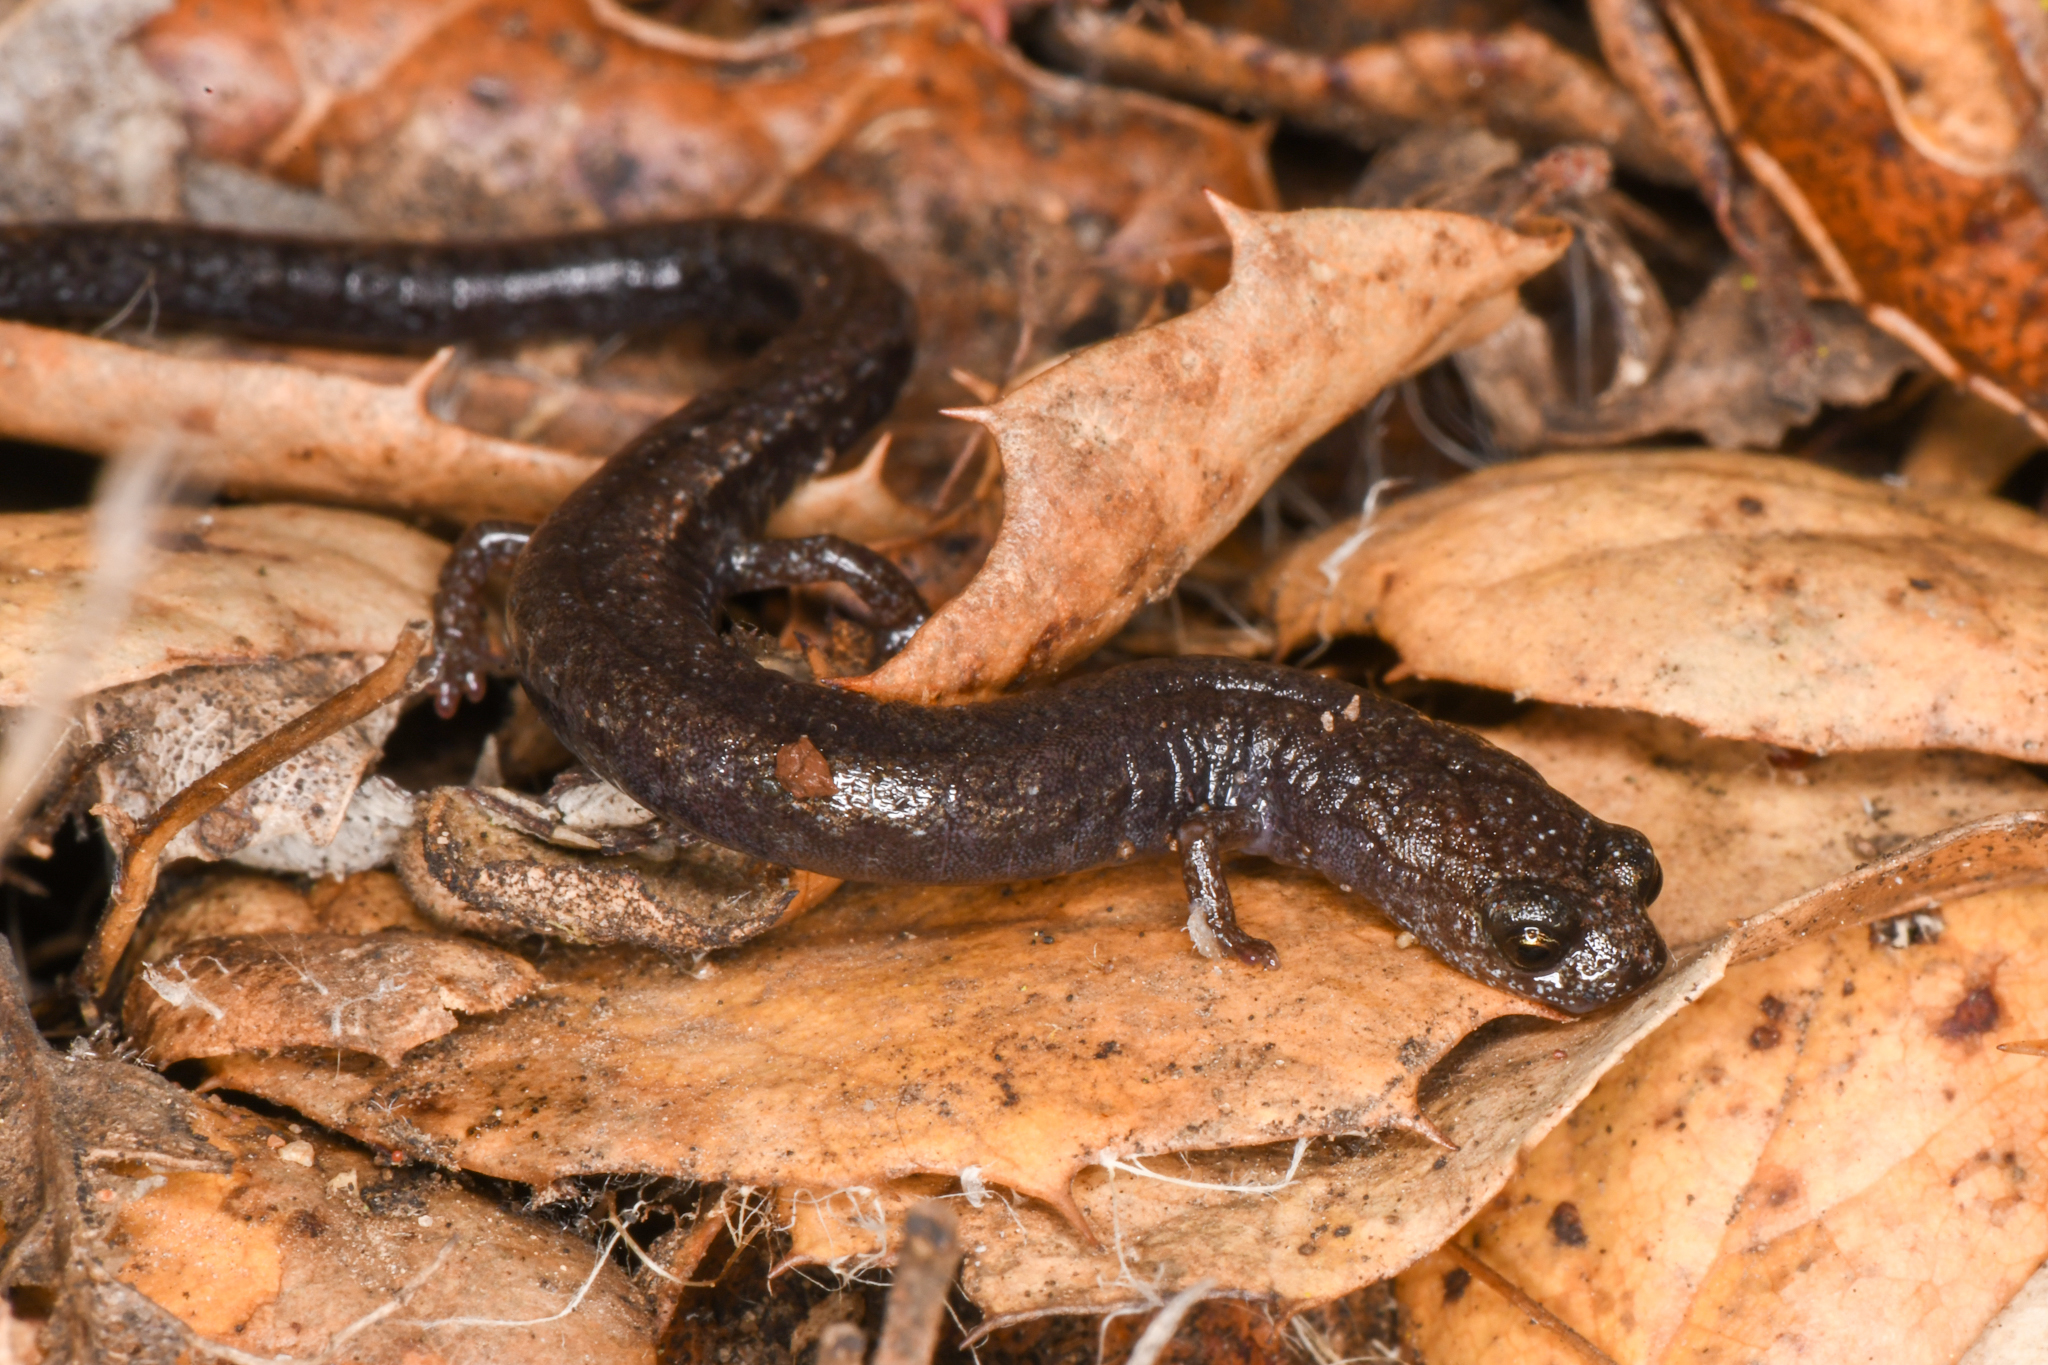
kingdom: Animalia
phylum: Chordata
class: Amphibia
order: Caudata
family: Plethodontidae
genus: Batrachoseps
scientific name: Batrachoseps nigriventris
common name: Black-bellied slender salamander
